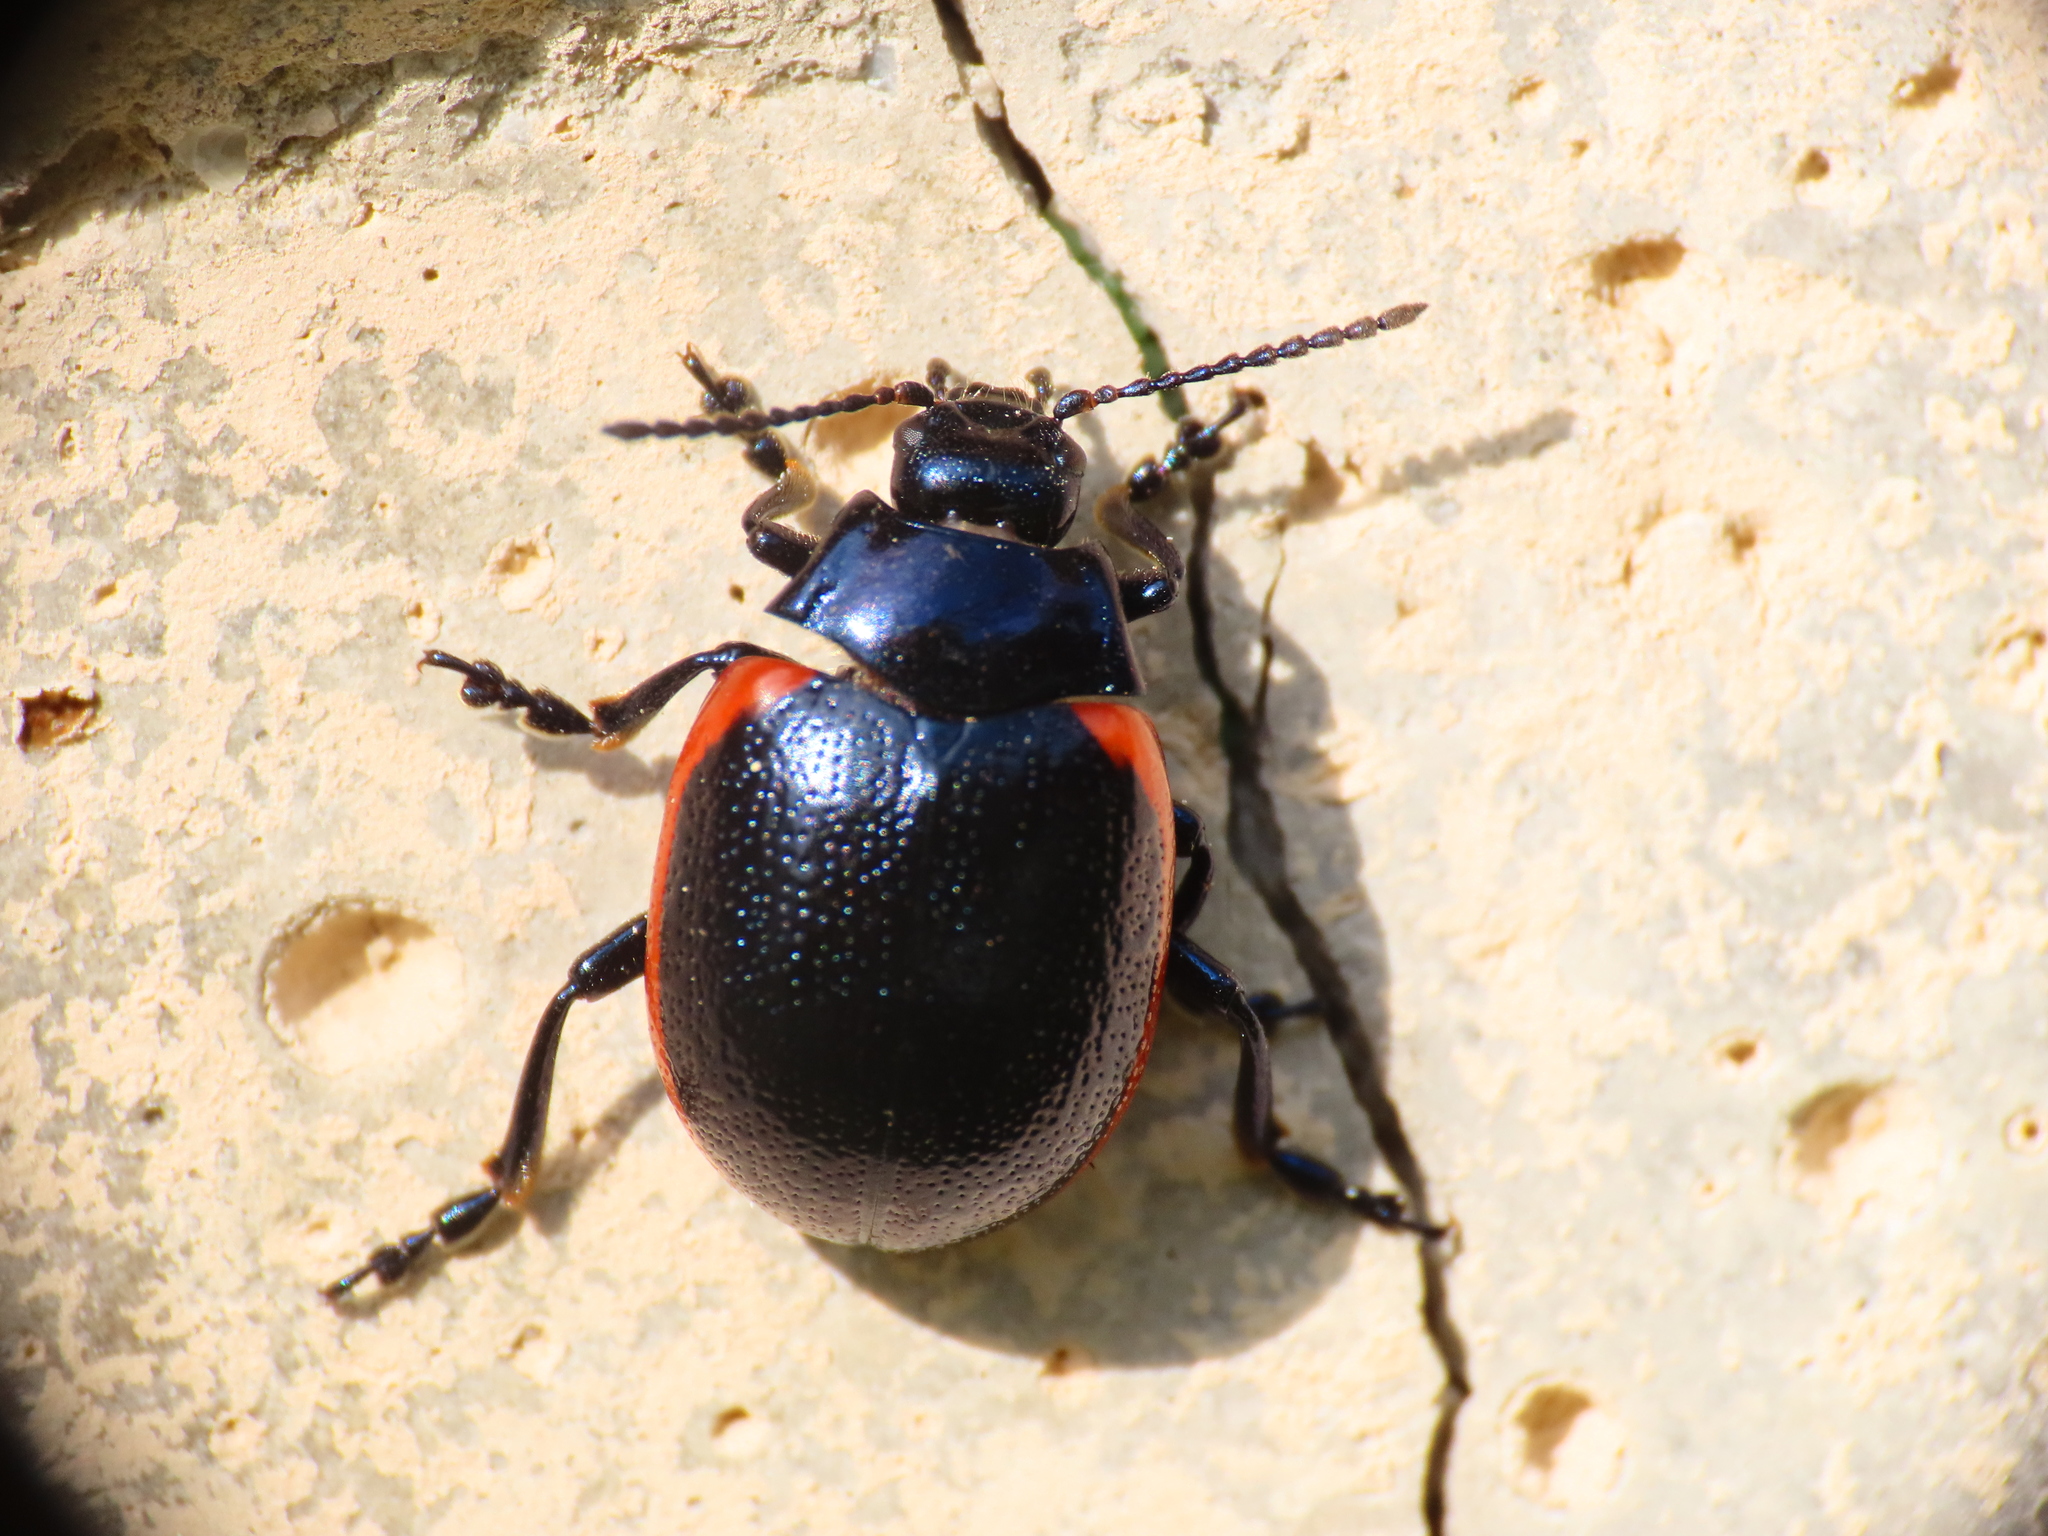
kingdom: Animalia
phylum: Arthropoda
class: Insecta
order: Coleoptera
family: Chrysomelidae
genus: Chrysolina
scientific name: Chrysolina rossia
